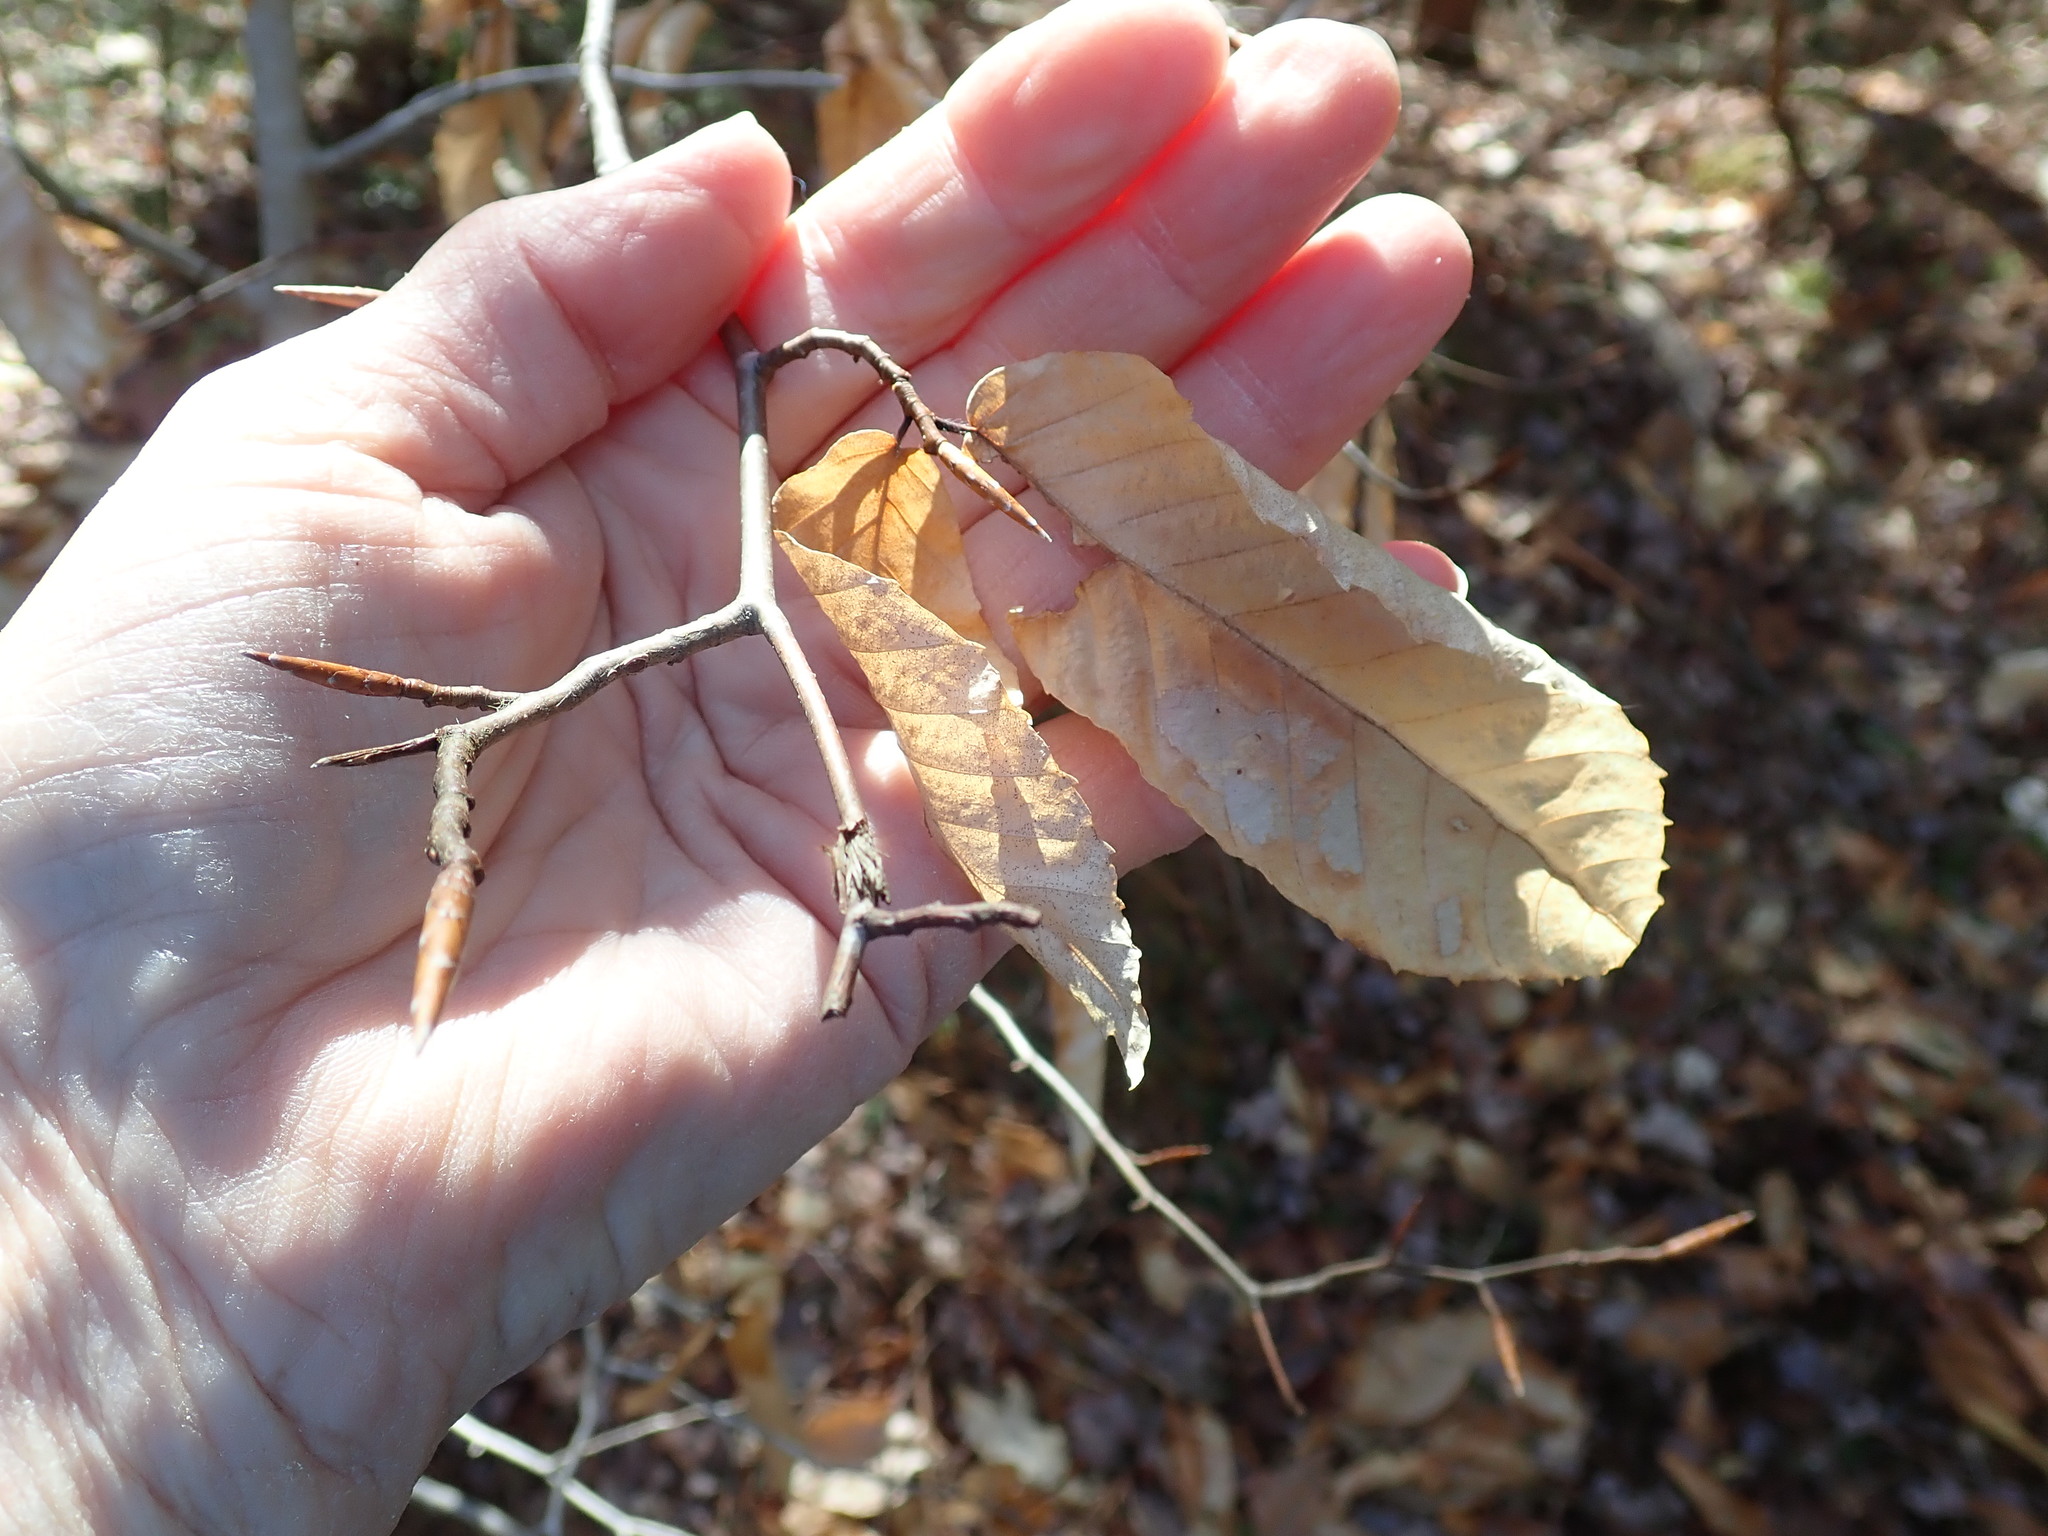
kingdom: Plantae
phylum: Tracheophyta
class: Magnoliopsida
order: Fagales
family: Fagaceae
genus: Fagus
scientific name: Fagus grandifolia
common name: American beech
